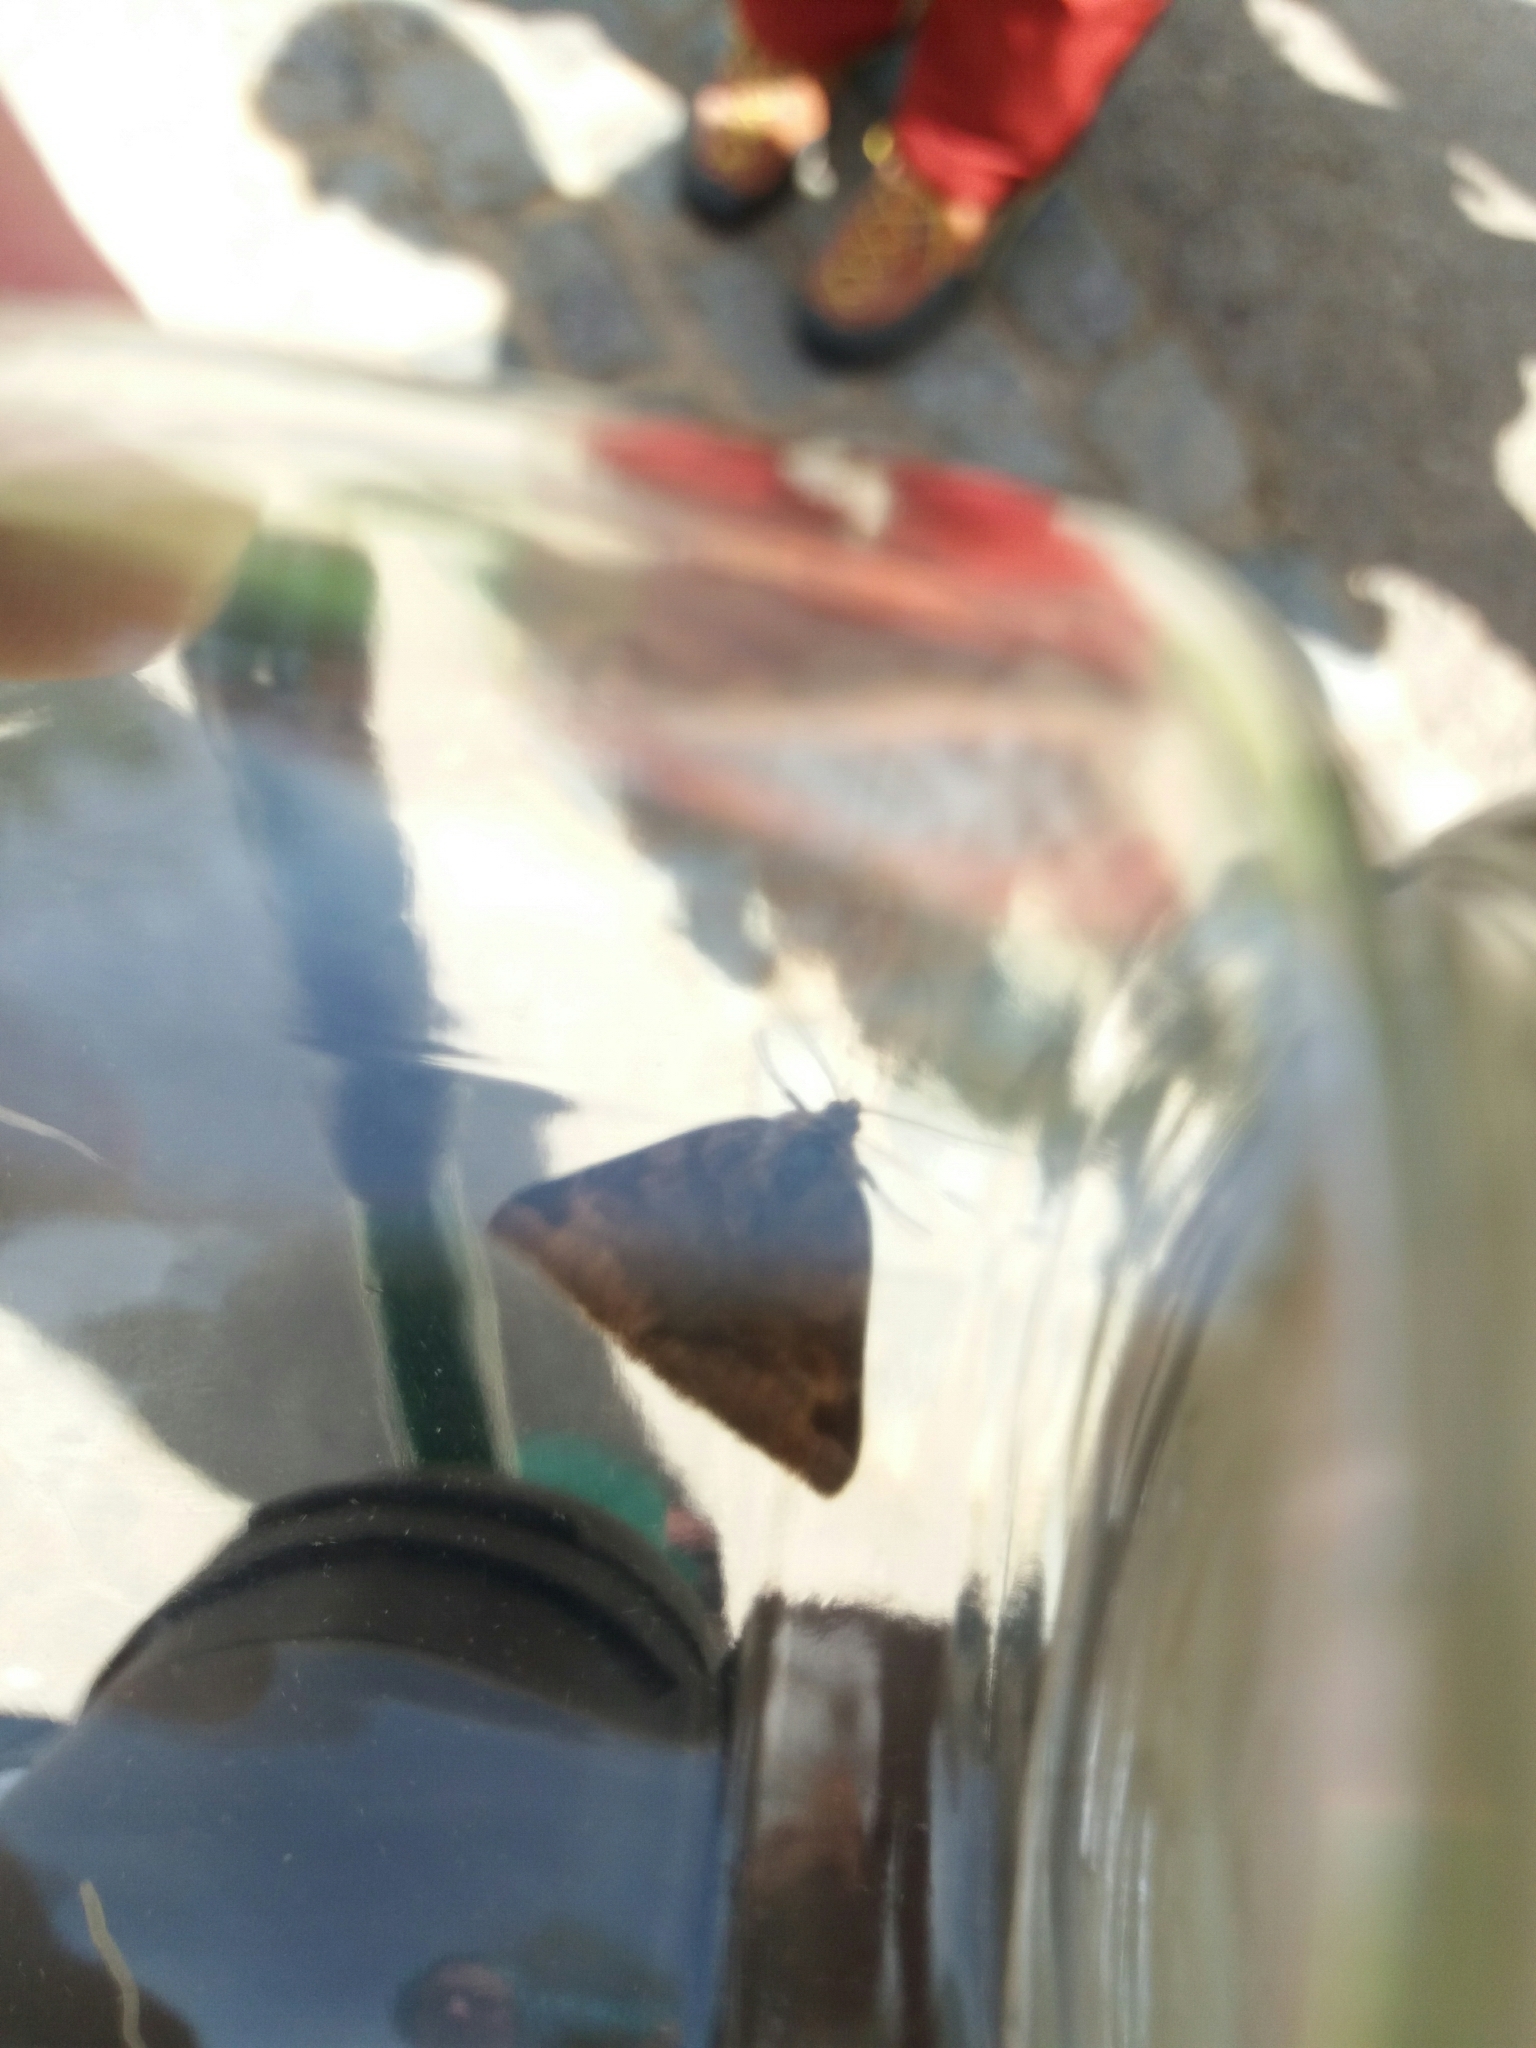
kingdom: Animalia
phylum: Arthropoda
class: Insecta
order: Lepidoptera
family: Erebidae
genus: Euclidia
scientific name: Euclidia glyphica
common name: Burnet companion
